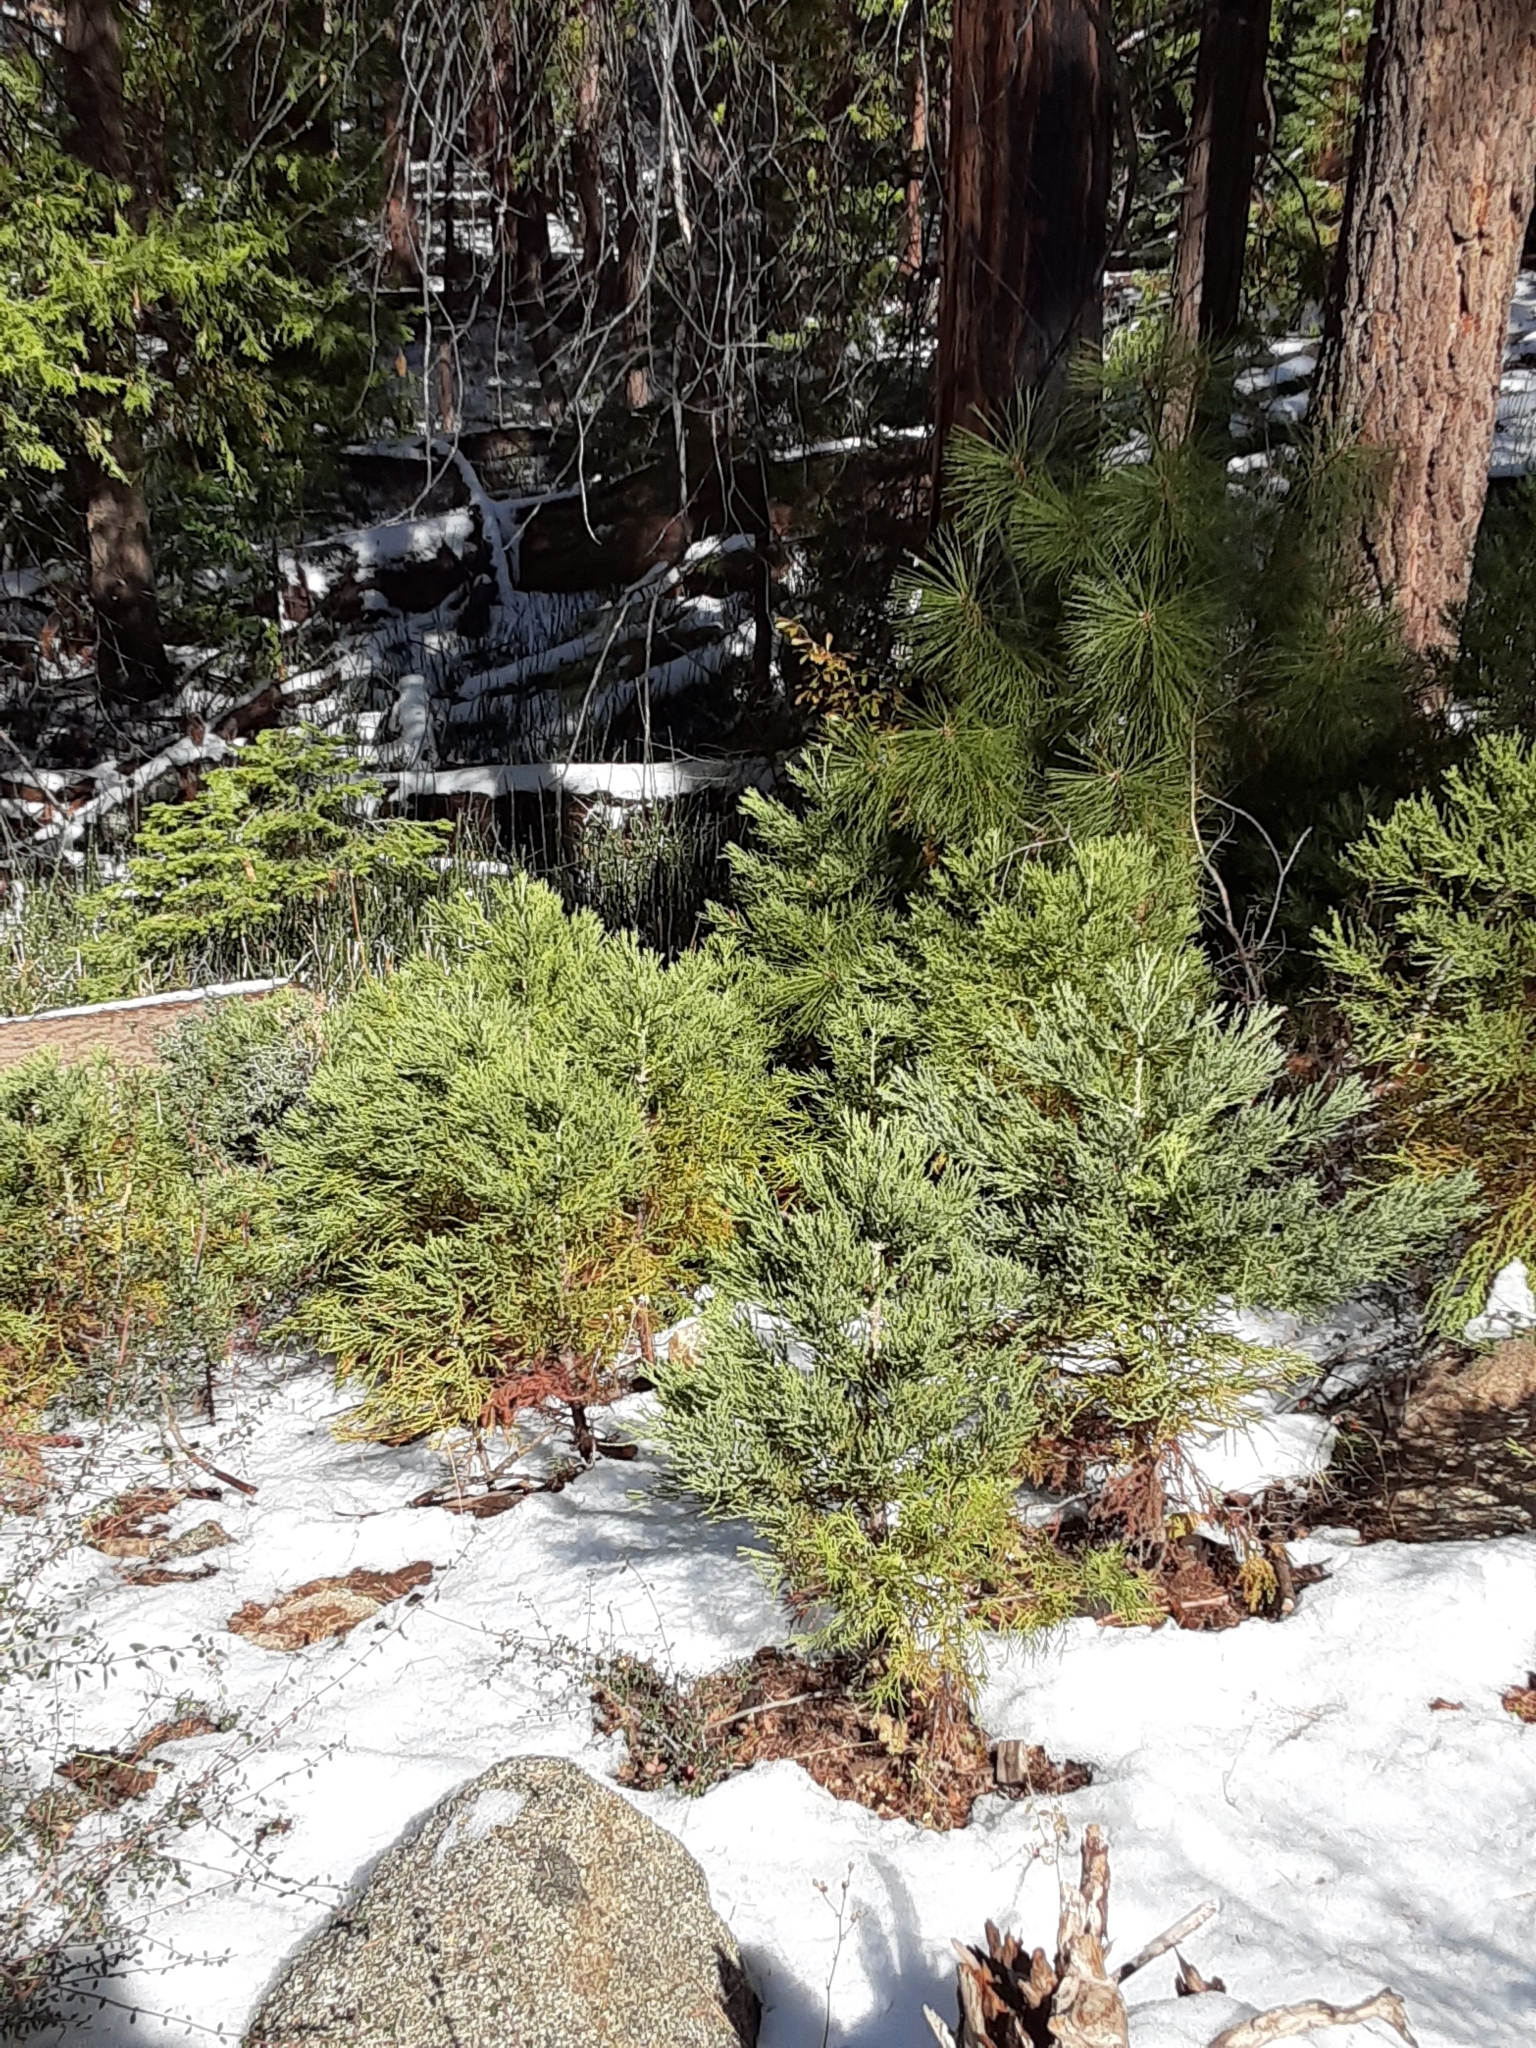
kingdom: Plantae
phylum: Tracheophyta
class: Pinopsida
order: Pinales
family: Cupressaceae
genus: Sequoiadendron
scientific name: Sequoiadendron giganteum
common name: Wellingtonia
